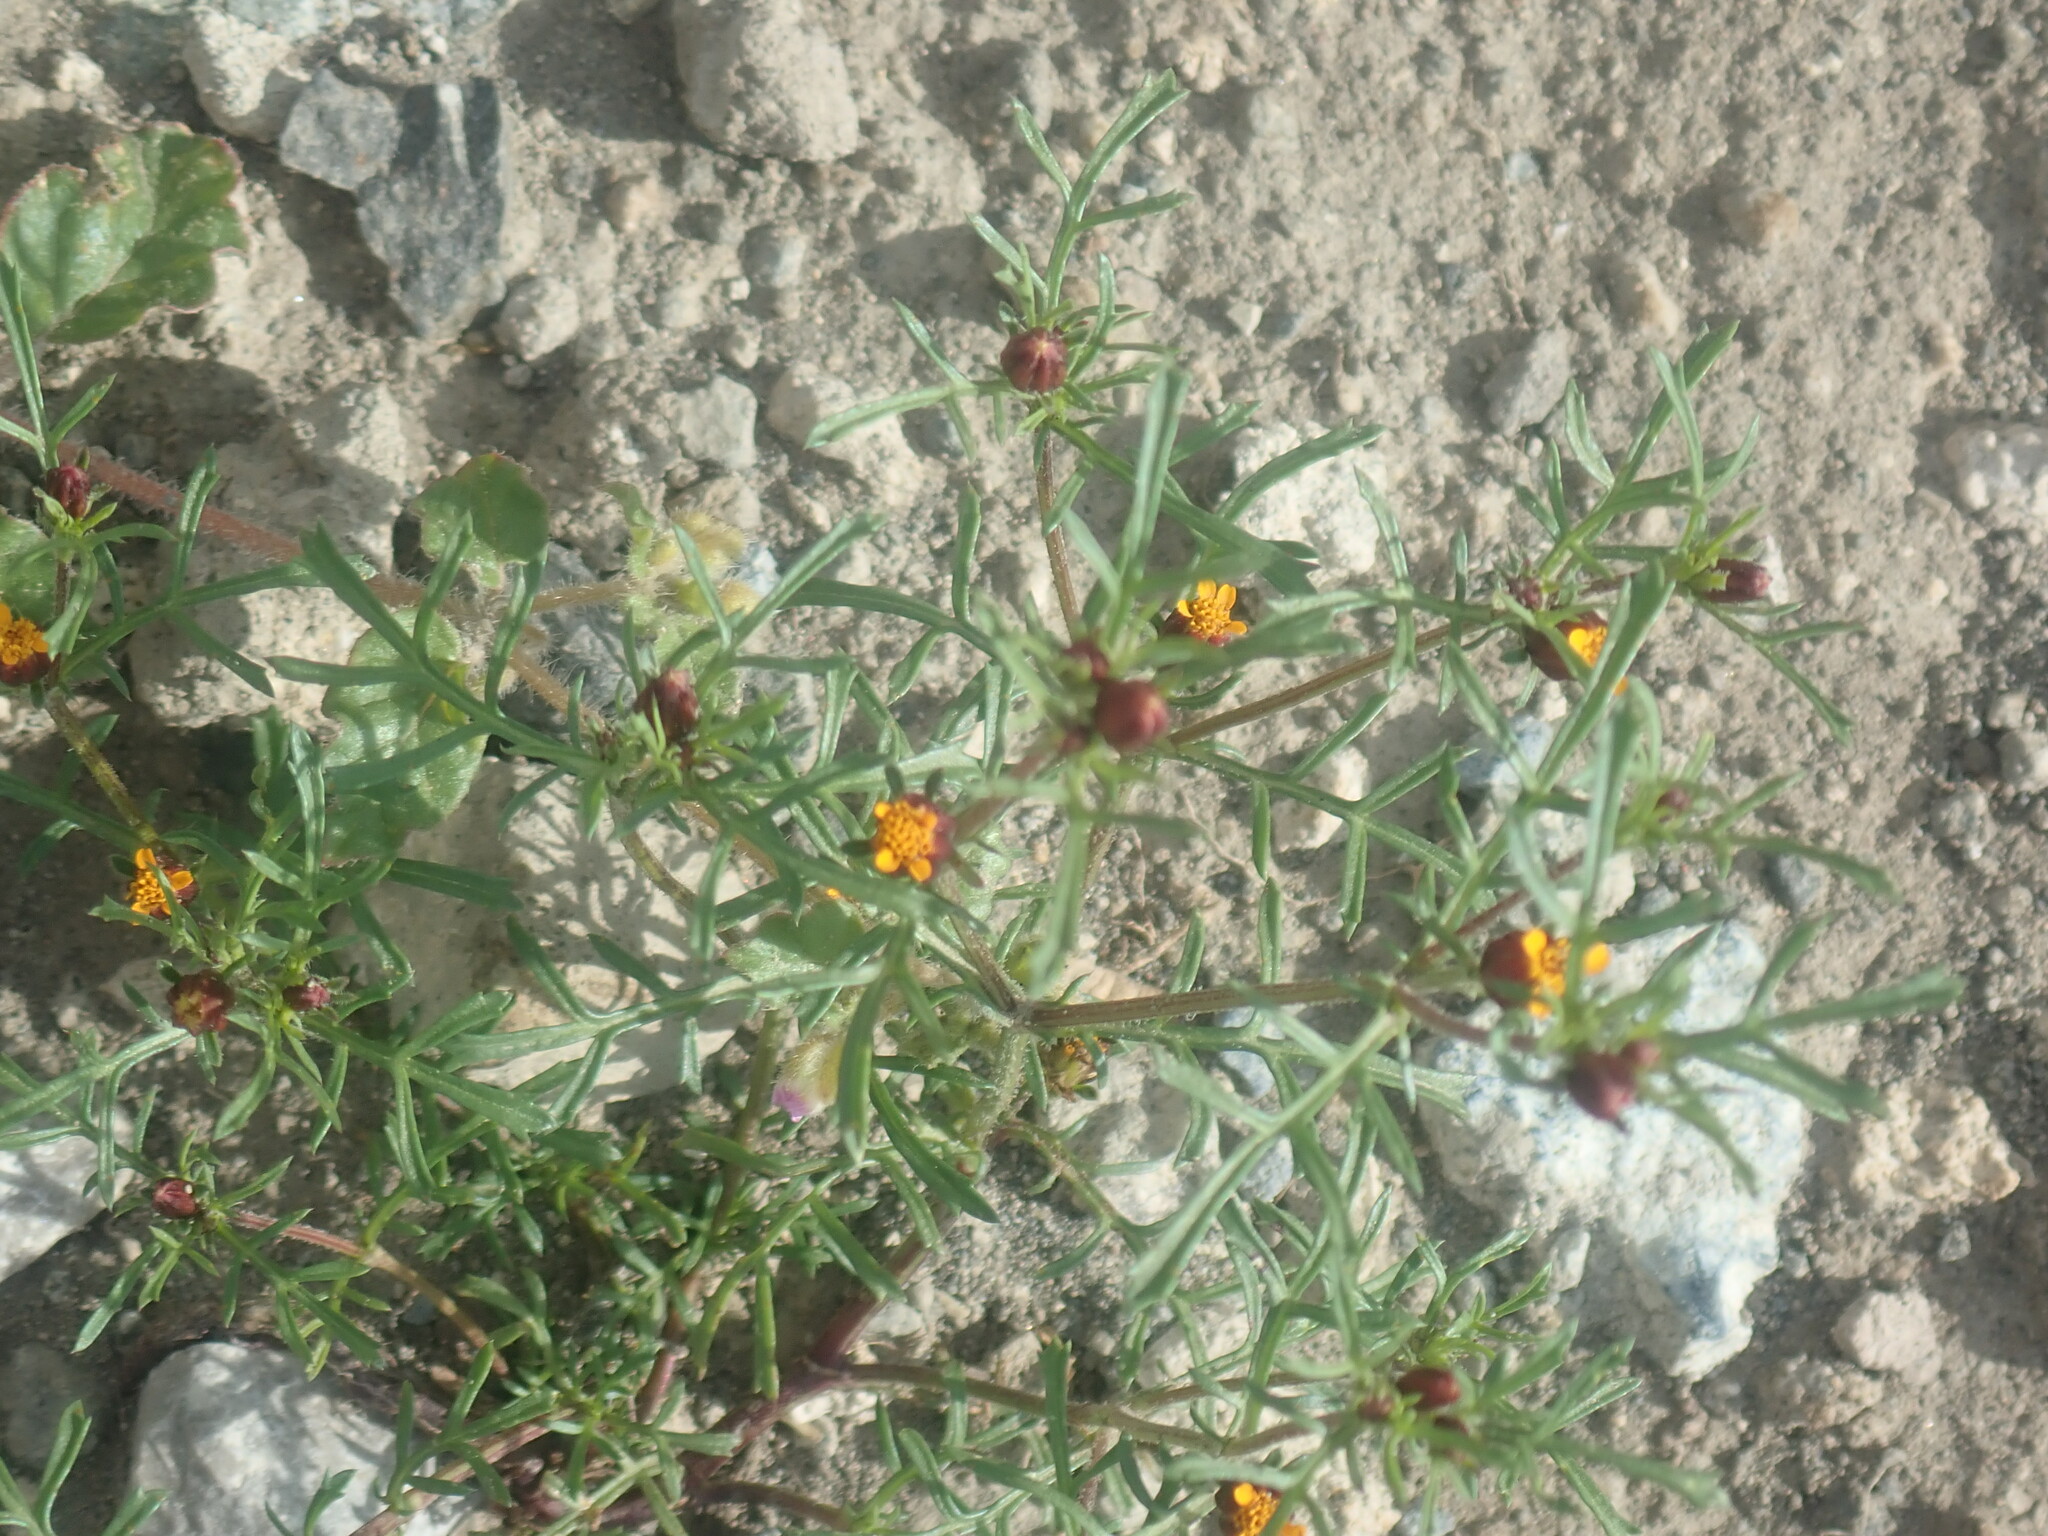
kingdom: Plantae
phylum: Tracheophyta
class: Magnoliopsida
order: Asterales
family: Asteraceae
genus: Dyssodia
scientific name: Dyssodia papposa
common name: Dogweed
